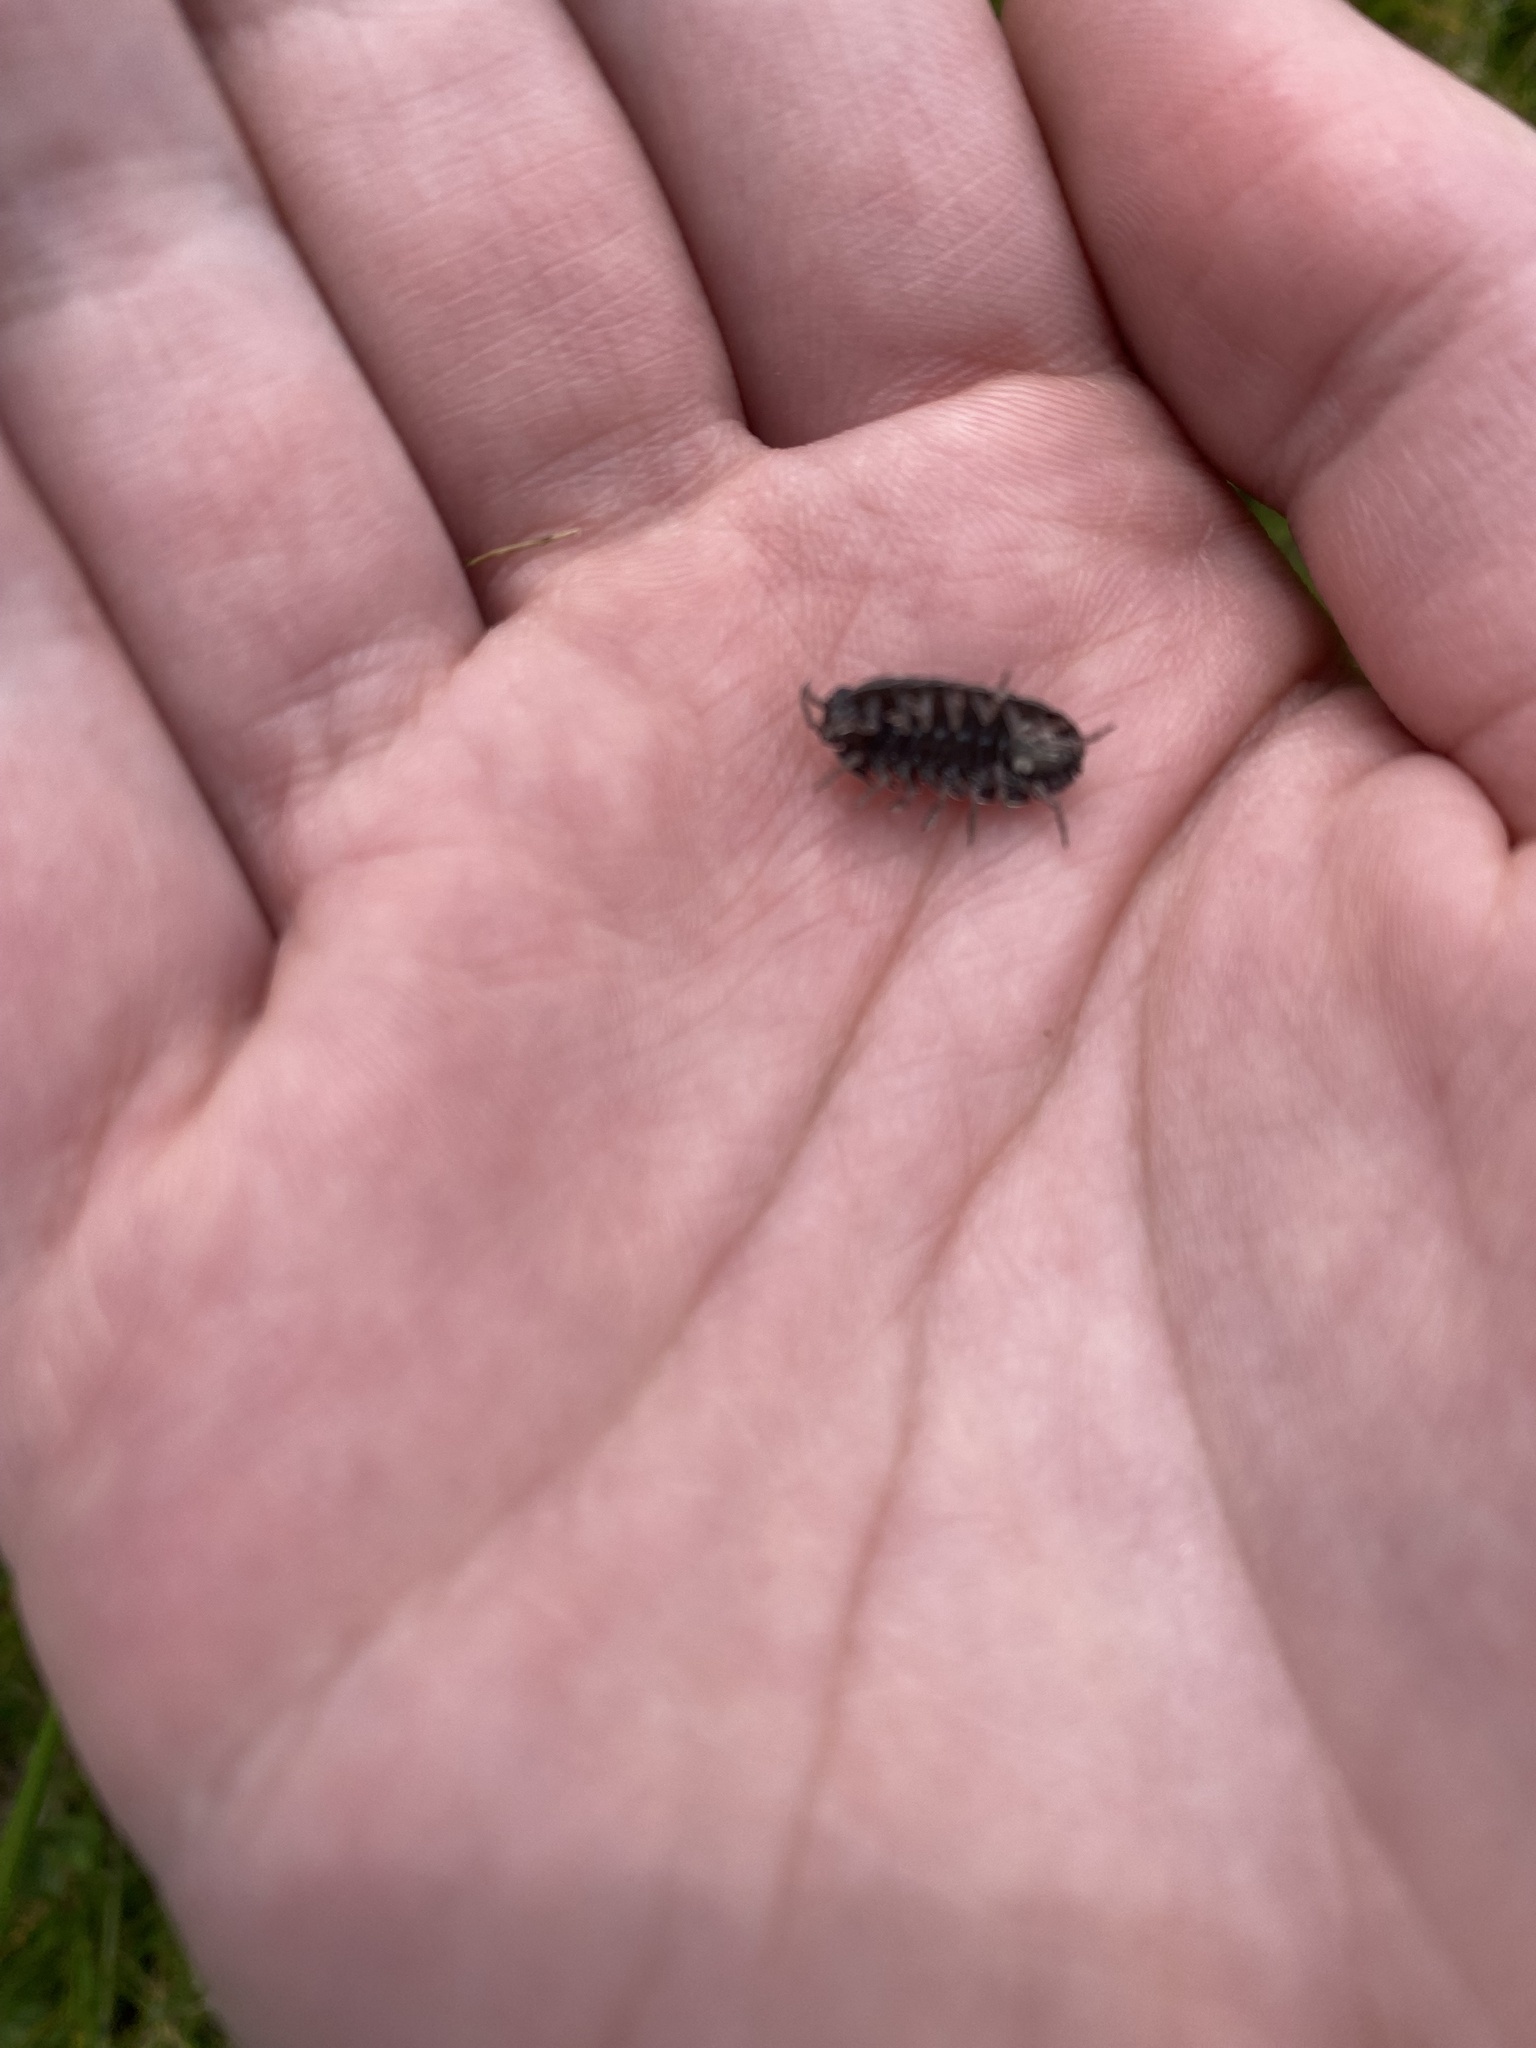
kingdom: Animalia
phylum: Arthropoda
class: Malacostraca
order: Isopoda
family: Armadillidiidae
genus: Armadillidium
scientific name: Armadillidium vulgare
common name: Common pill woodlouse
